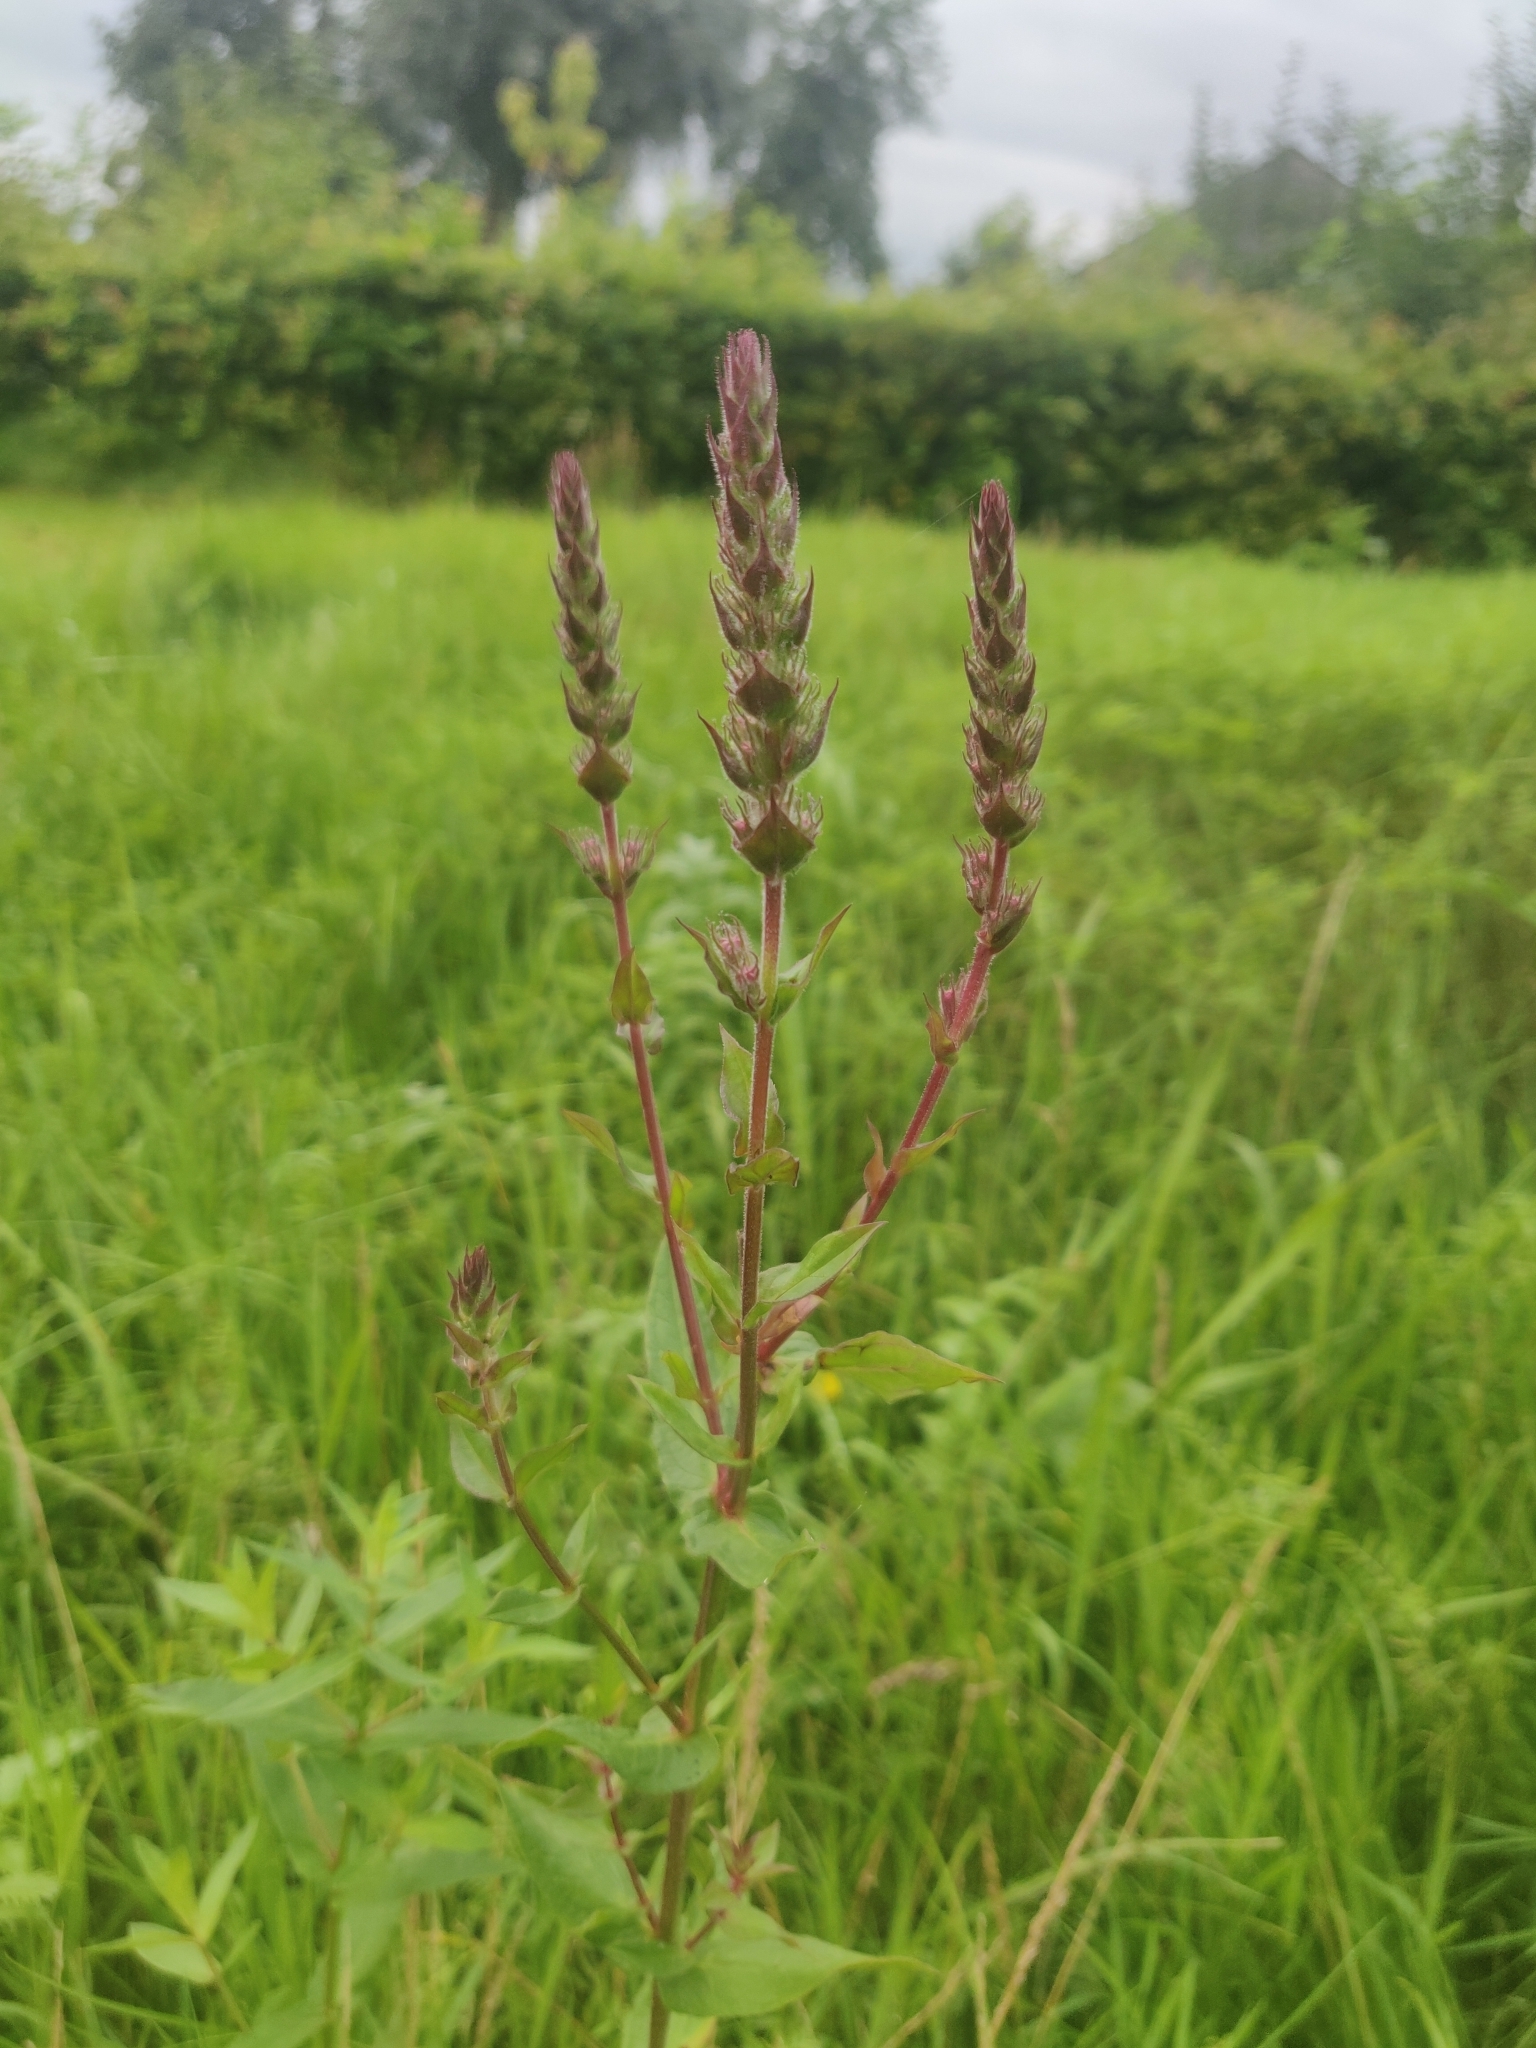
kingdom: Plantae
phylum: Tracheophyta
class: Magnoliopsida
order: Myrtales
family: Lythraceae
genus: Lythrum
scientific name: Lythrum salicaria
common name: Purple loosestrife
